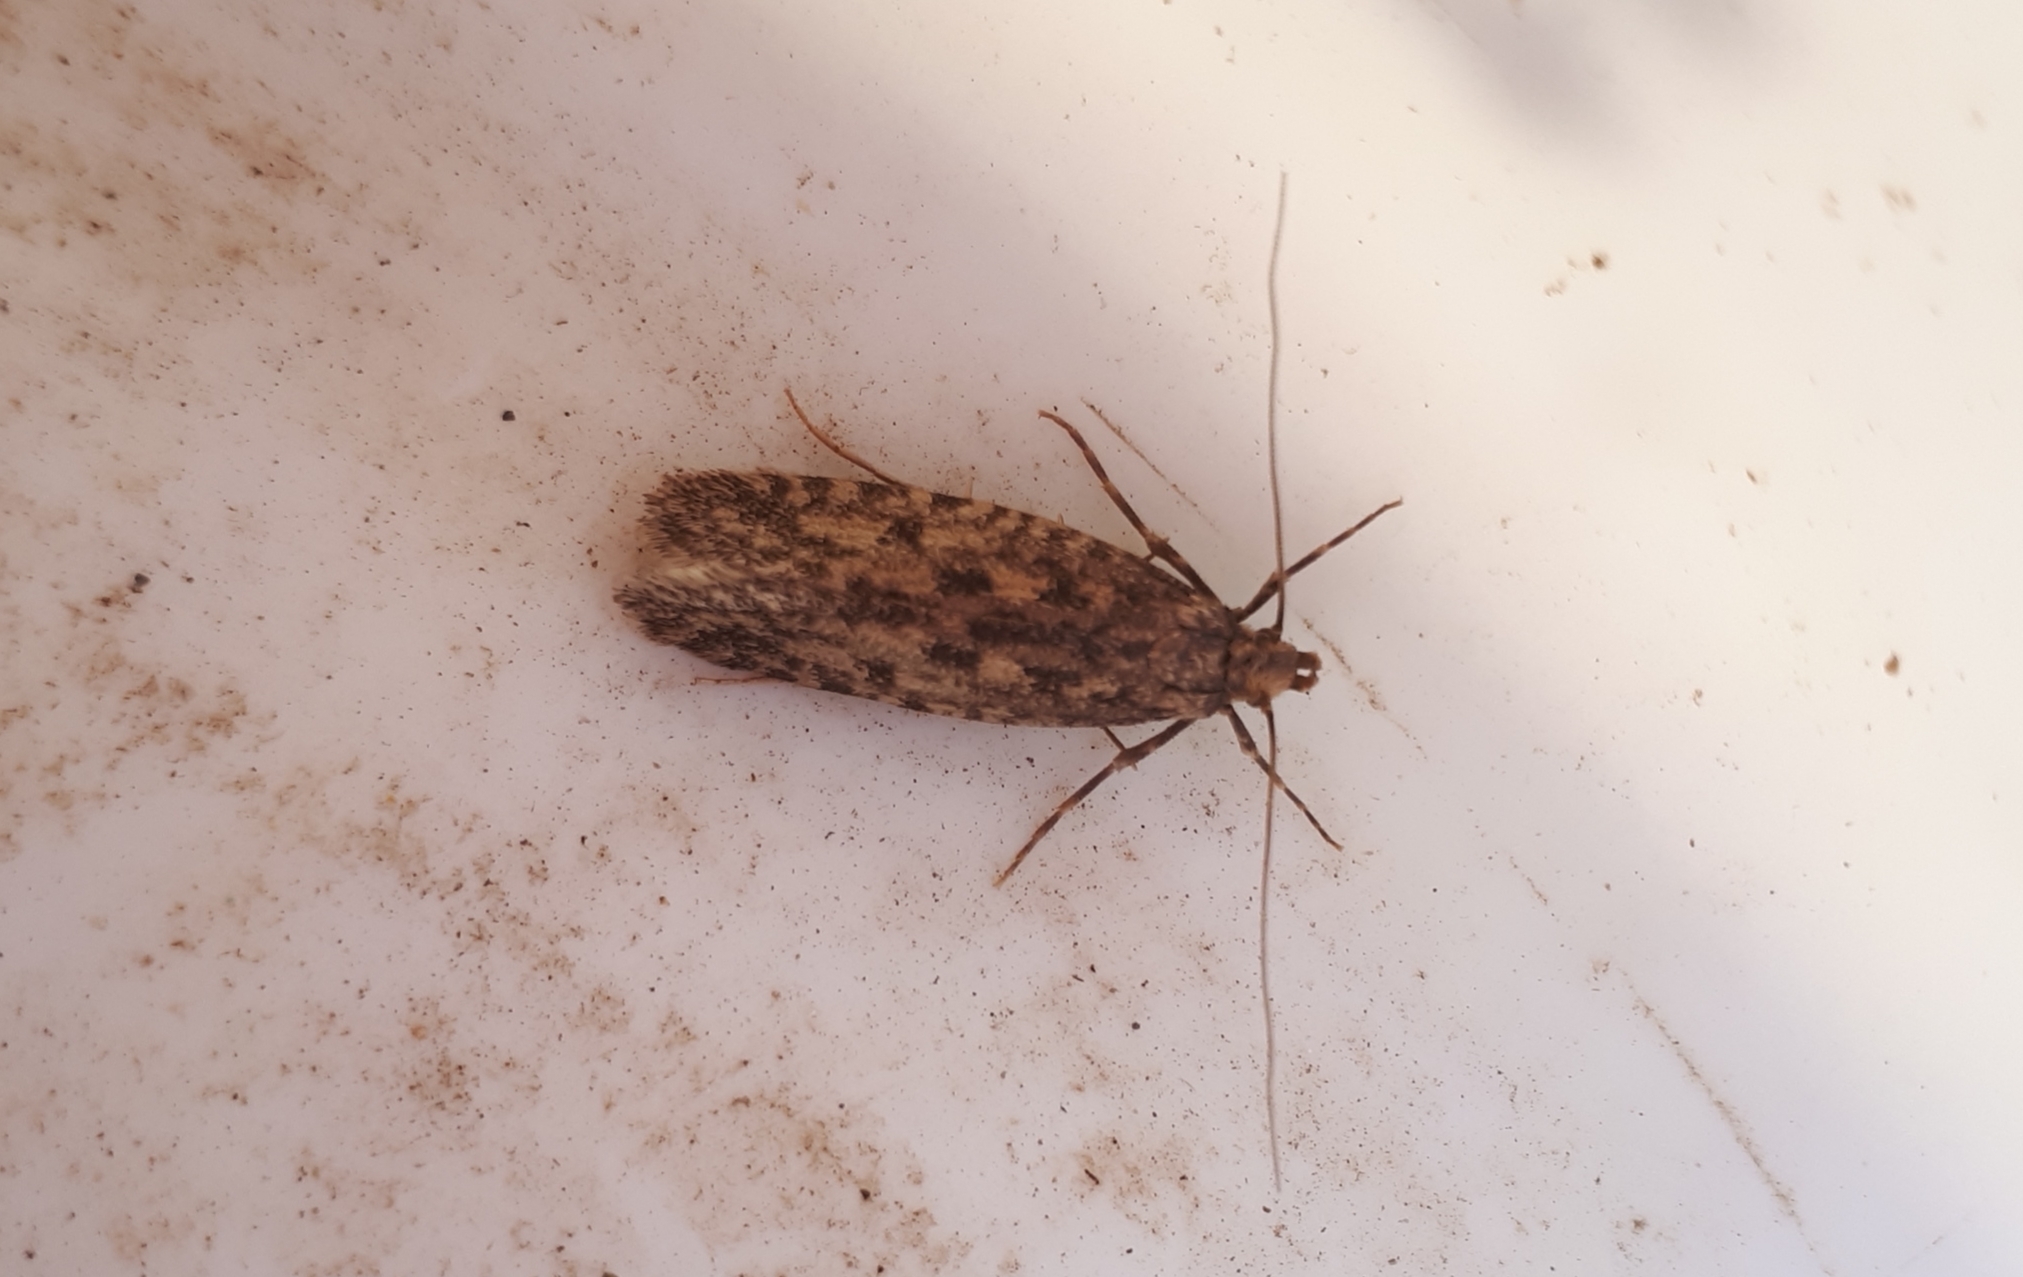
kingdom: Animalia
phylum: Arthropoda
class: Insecta
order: Lepidoptera
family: Tineidae
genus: Lindera
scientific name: Lindera tessellatella
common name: Moth
